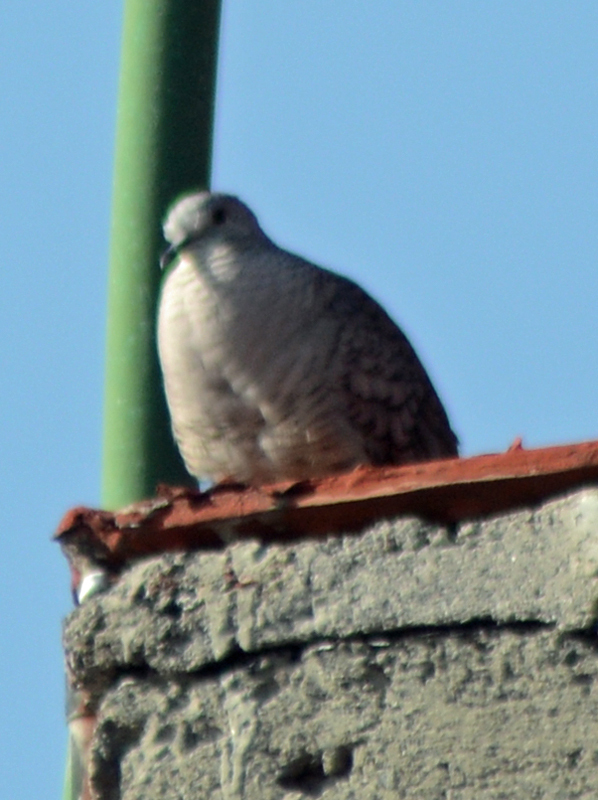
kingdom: Animalia
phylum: Chordata
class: Aves
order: Columbiformes
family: Columbidae
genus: Columbina
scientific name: Columbina inca
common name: Inca dove
